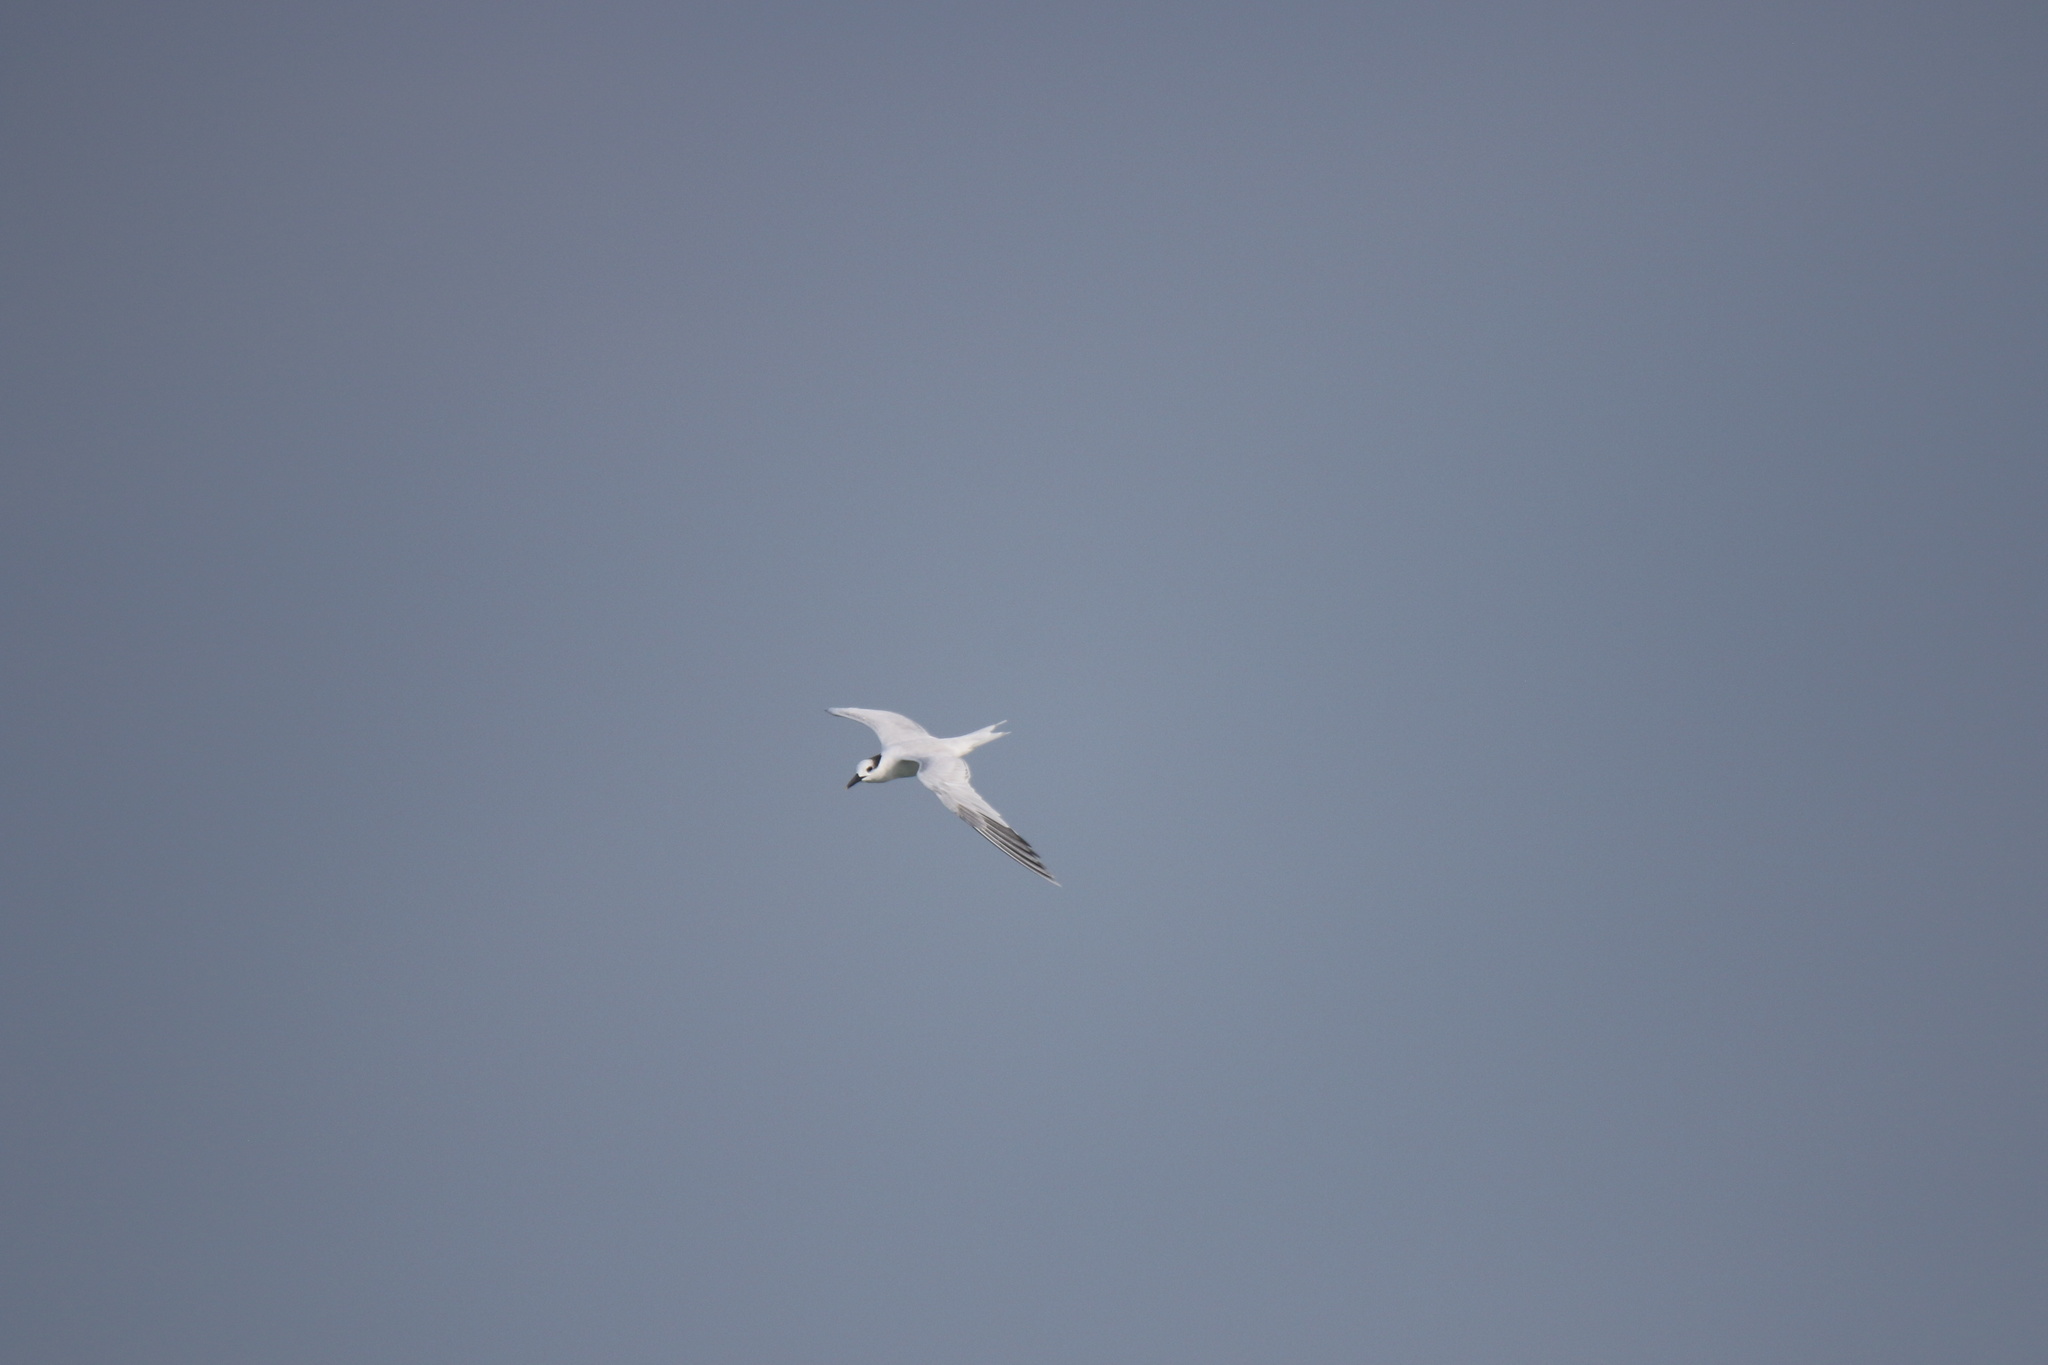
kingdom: Animalia
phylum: Chordata
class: Aves
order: Charadriiformes
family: Laridae
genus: Thalasseus
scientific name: Thalasseus sandvicensis
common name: Sandwich tern
